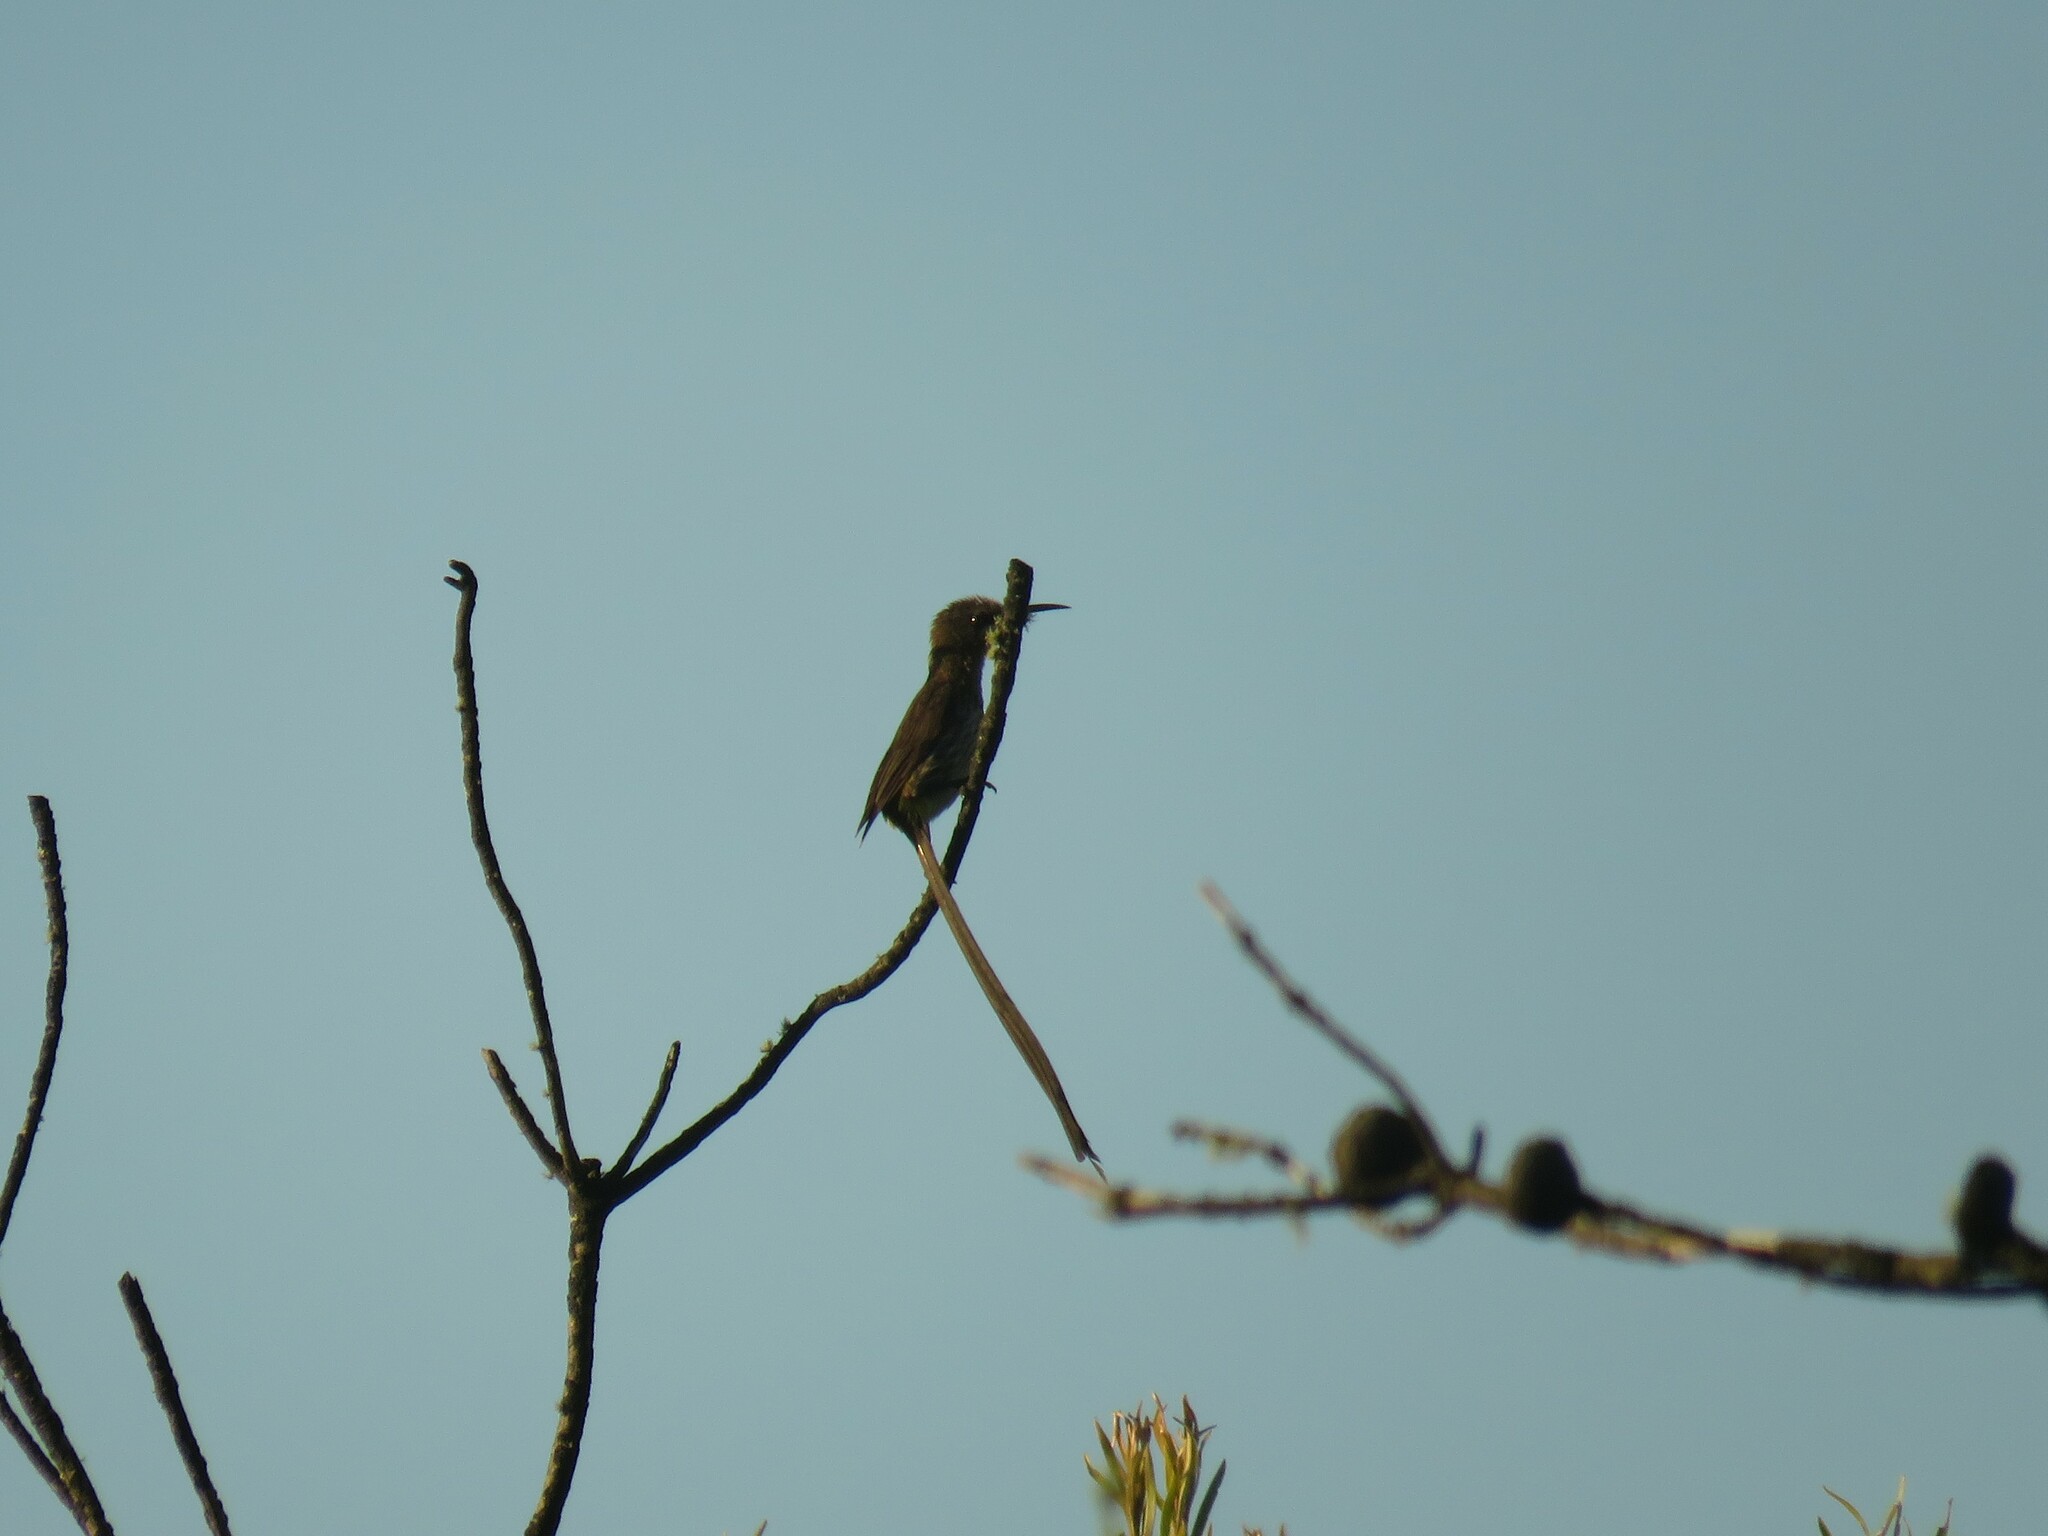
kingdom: Animalia
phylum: Chordata
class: Aves
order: Passeriformes
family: Promeropidae
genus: Promerops
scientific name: Promerops cafer
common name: Cape sugarbird
